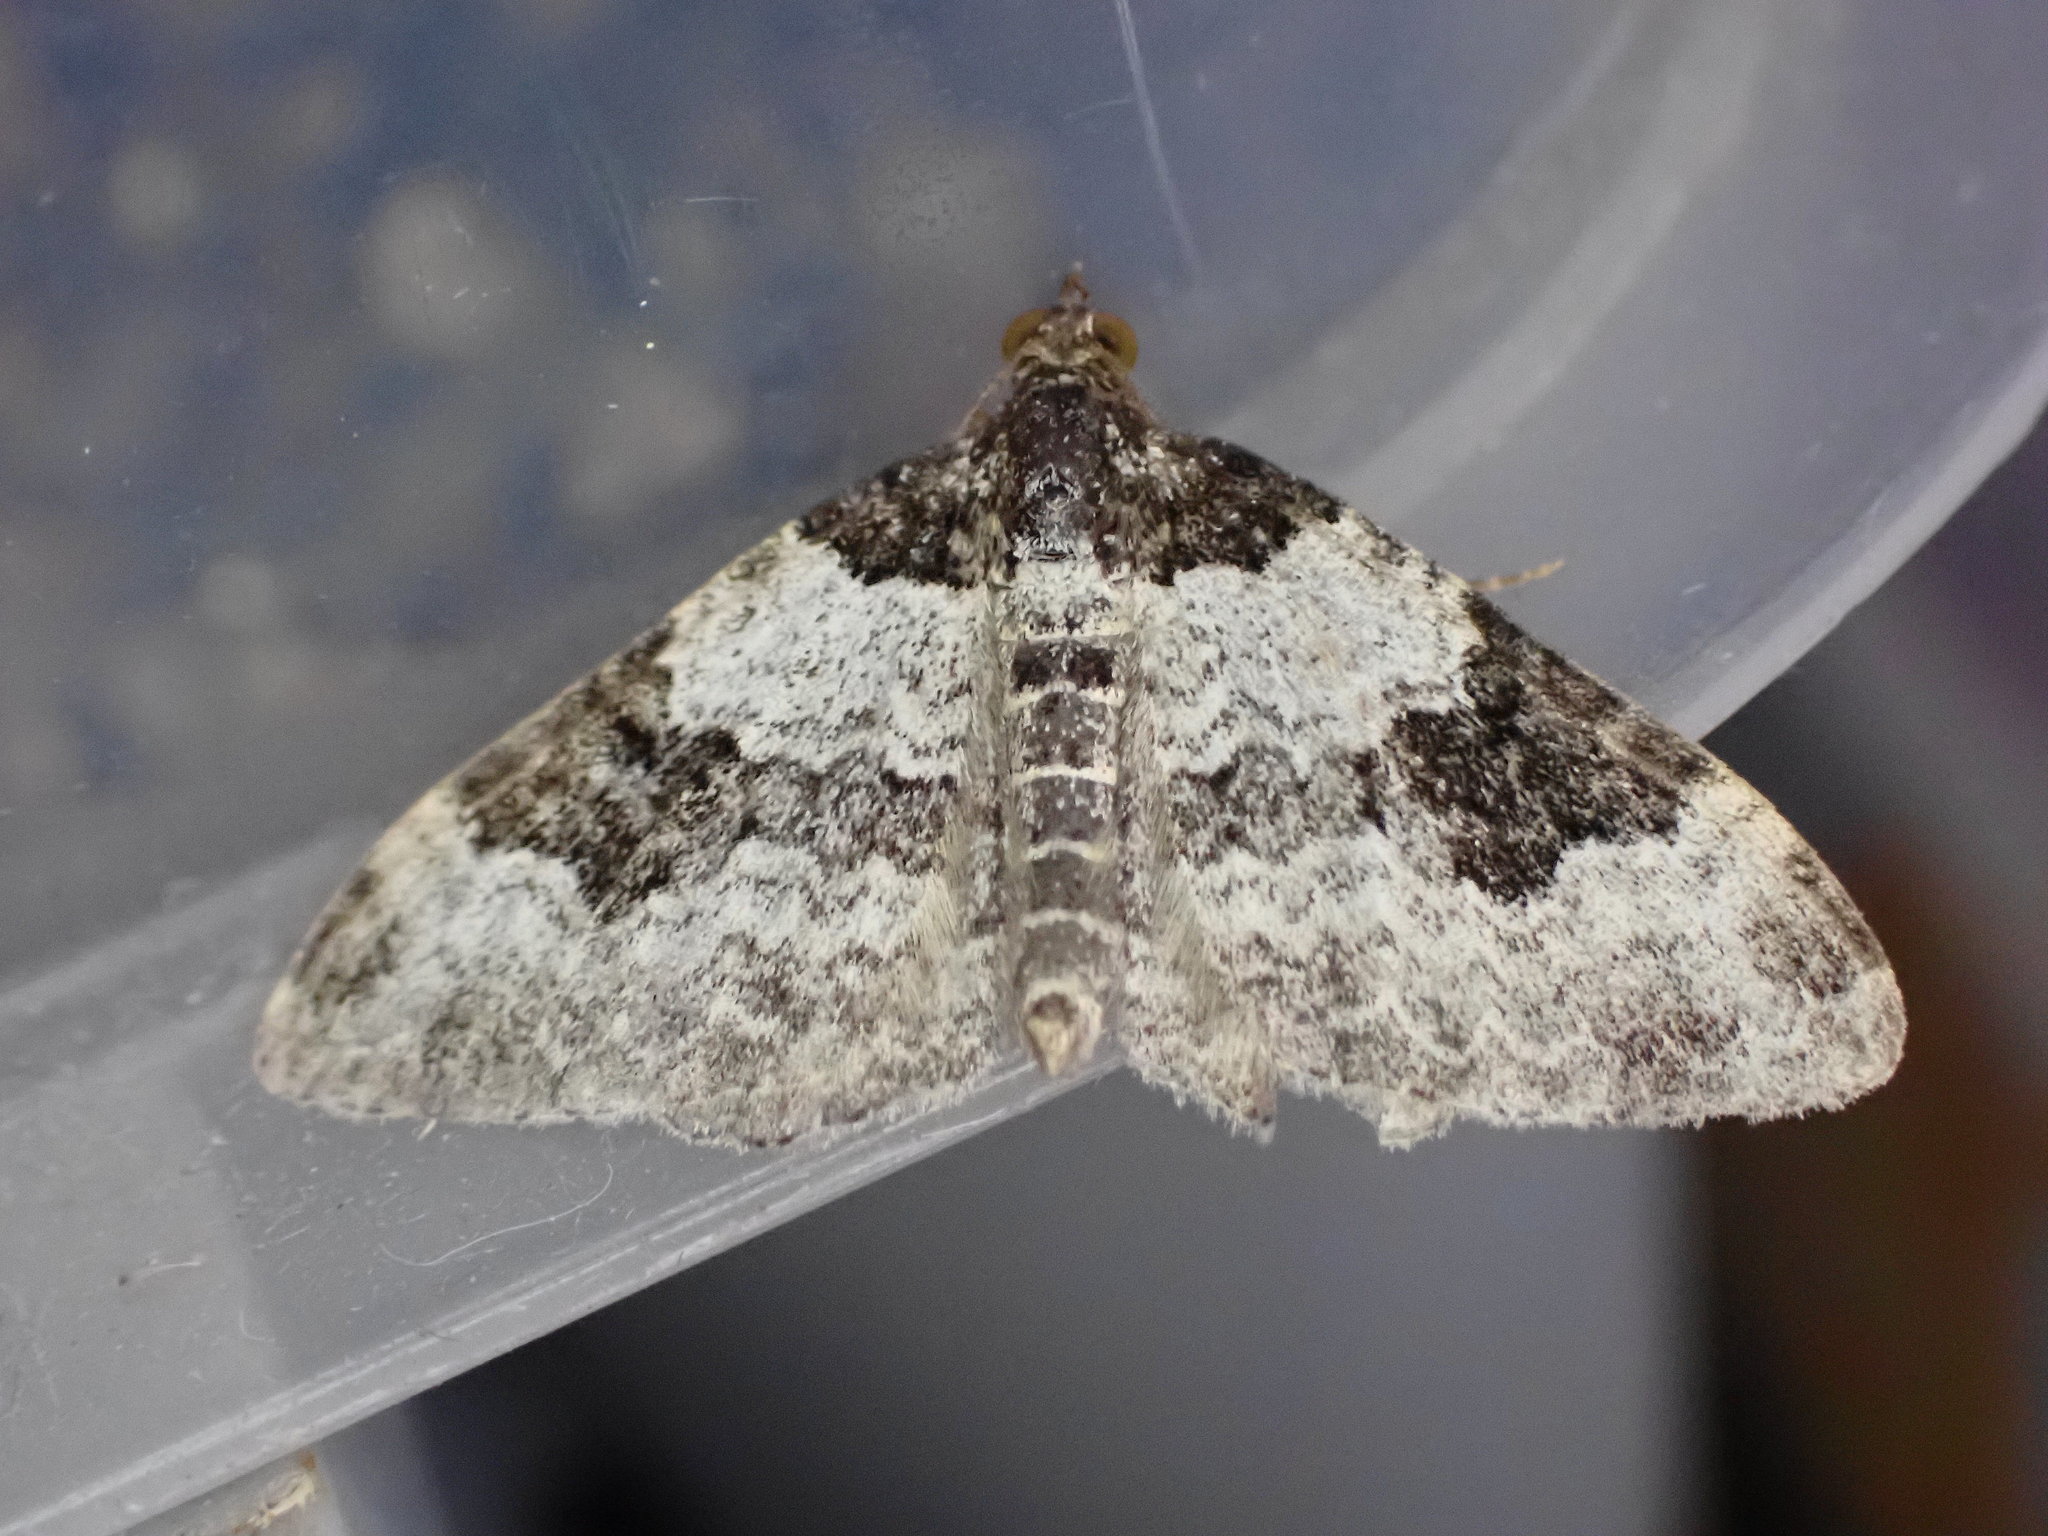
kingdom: Animalia
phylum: Arthropoda
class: Insecta
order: Lepidoptera
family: Geometridae
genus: Xanthorhoe
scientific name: Xanthorhoe fluctuata
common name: Garden carpet
